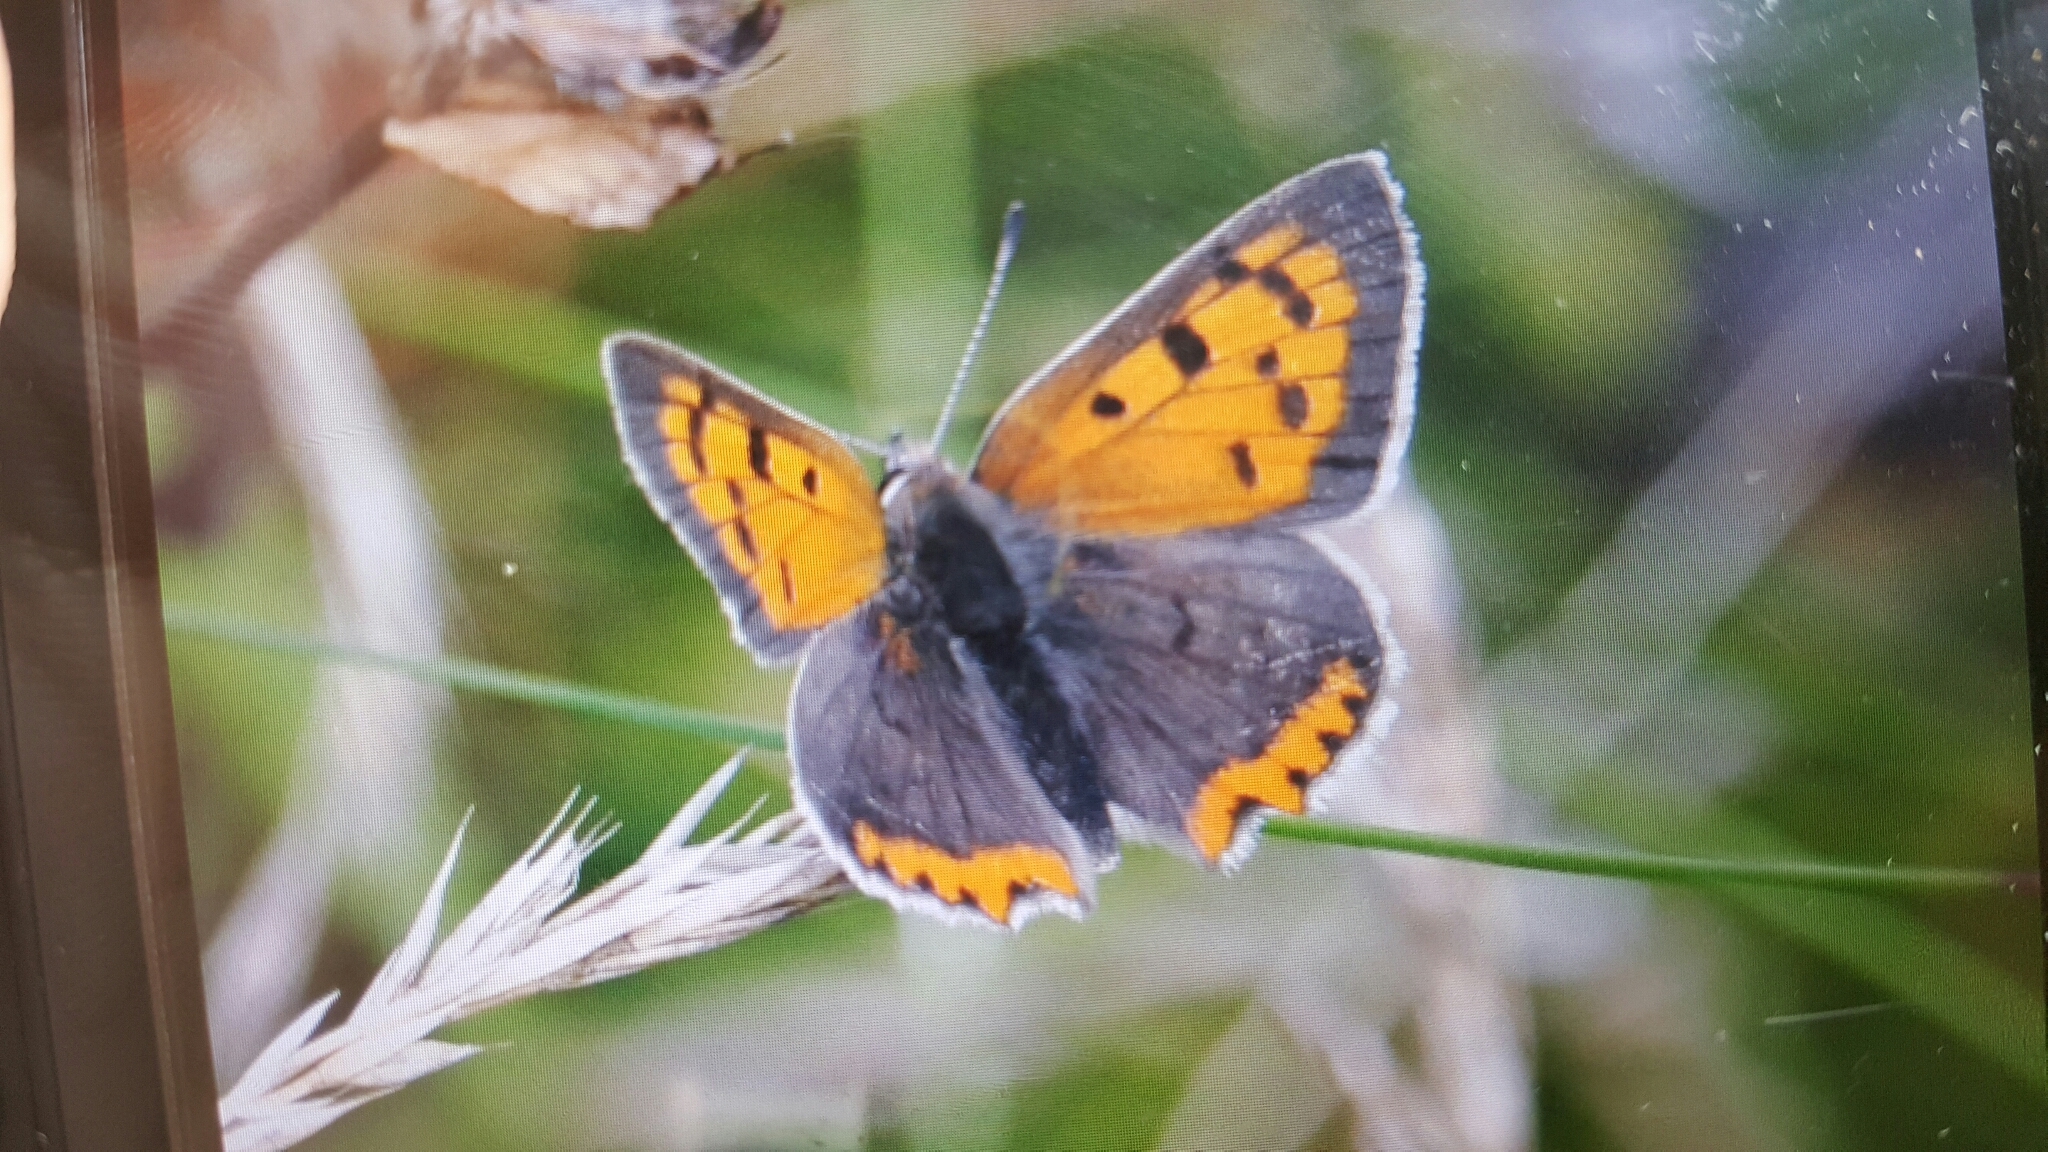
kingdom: Animalia
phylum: Arthropoda
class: Insecta
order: Lepidoptera
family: Lycaenidae
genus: Lycaena
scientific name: Lycaena phlaeas
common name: Small copper
